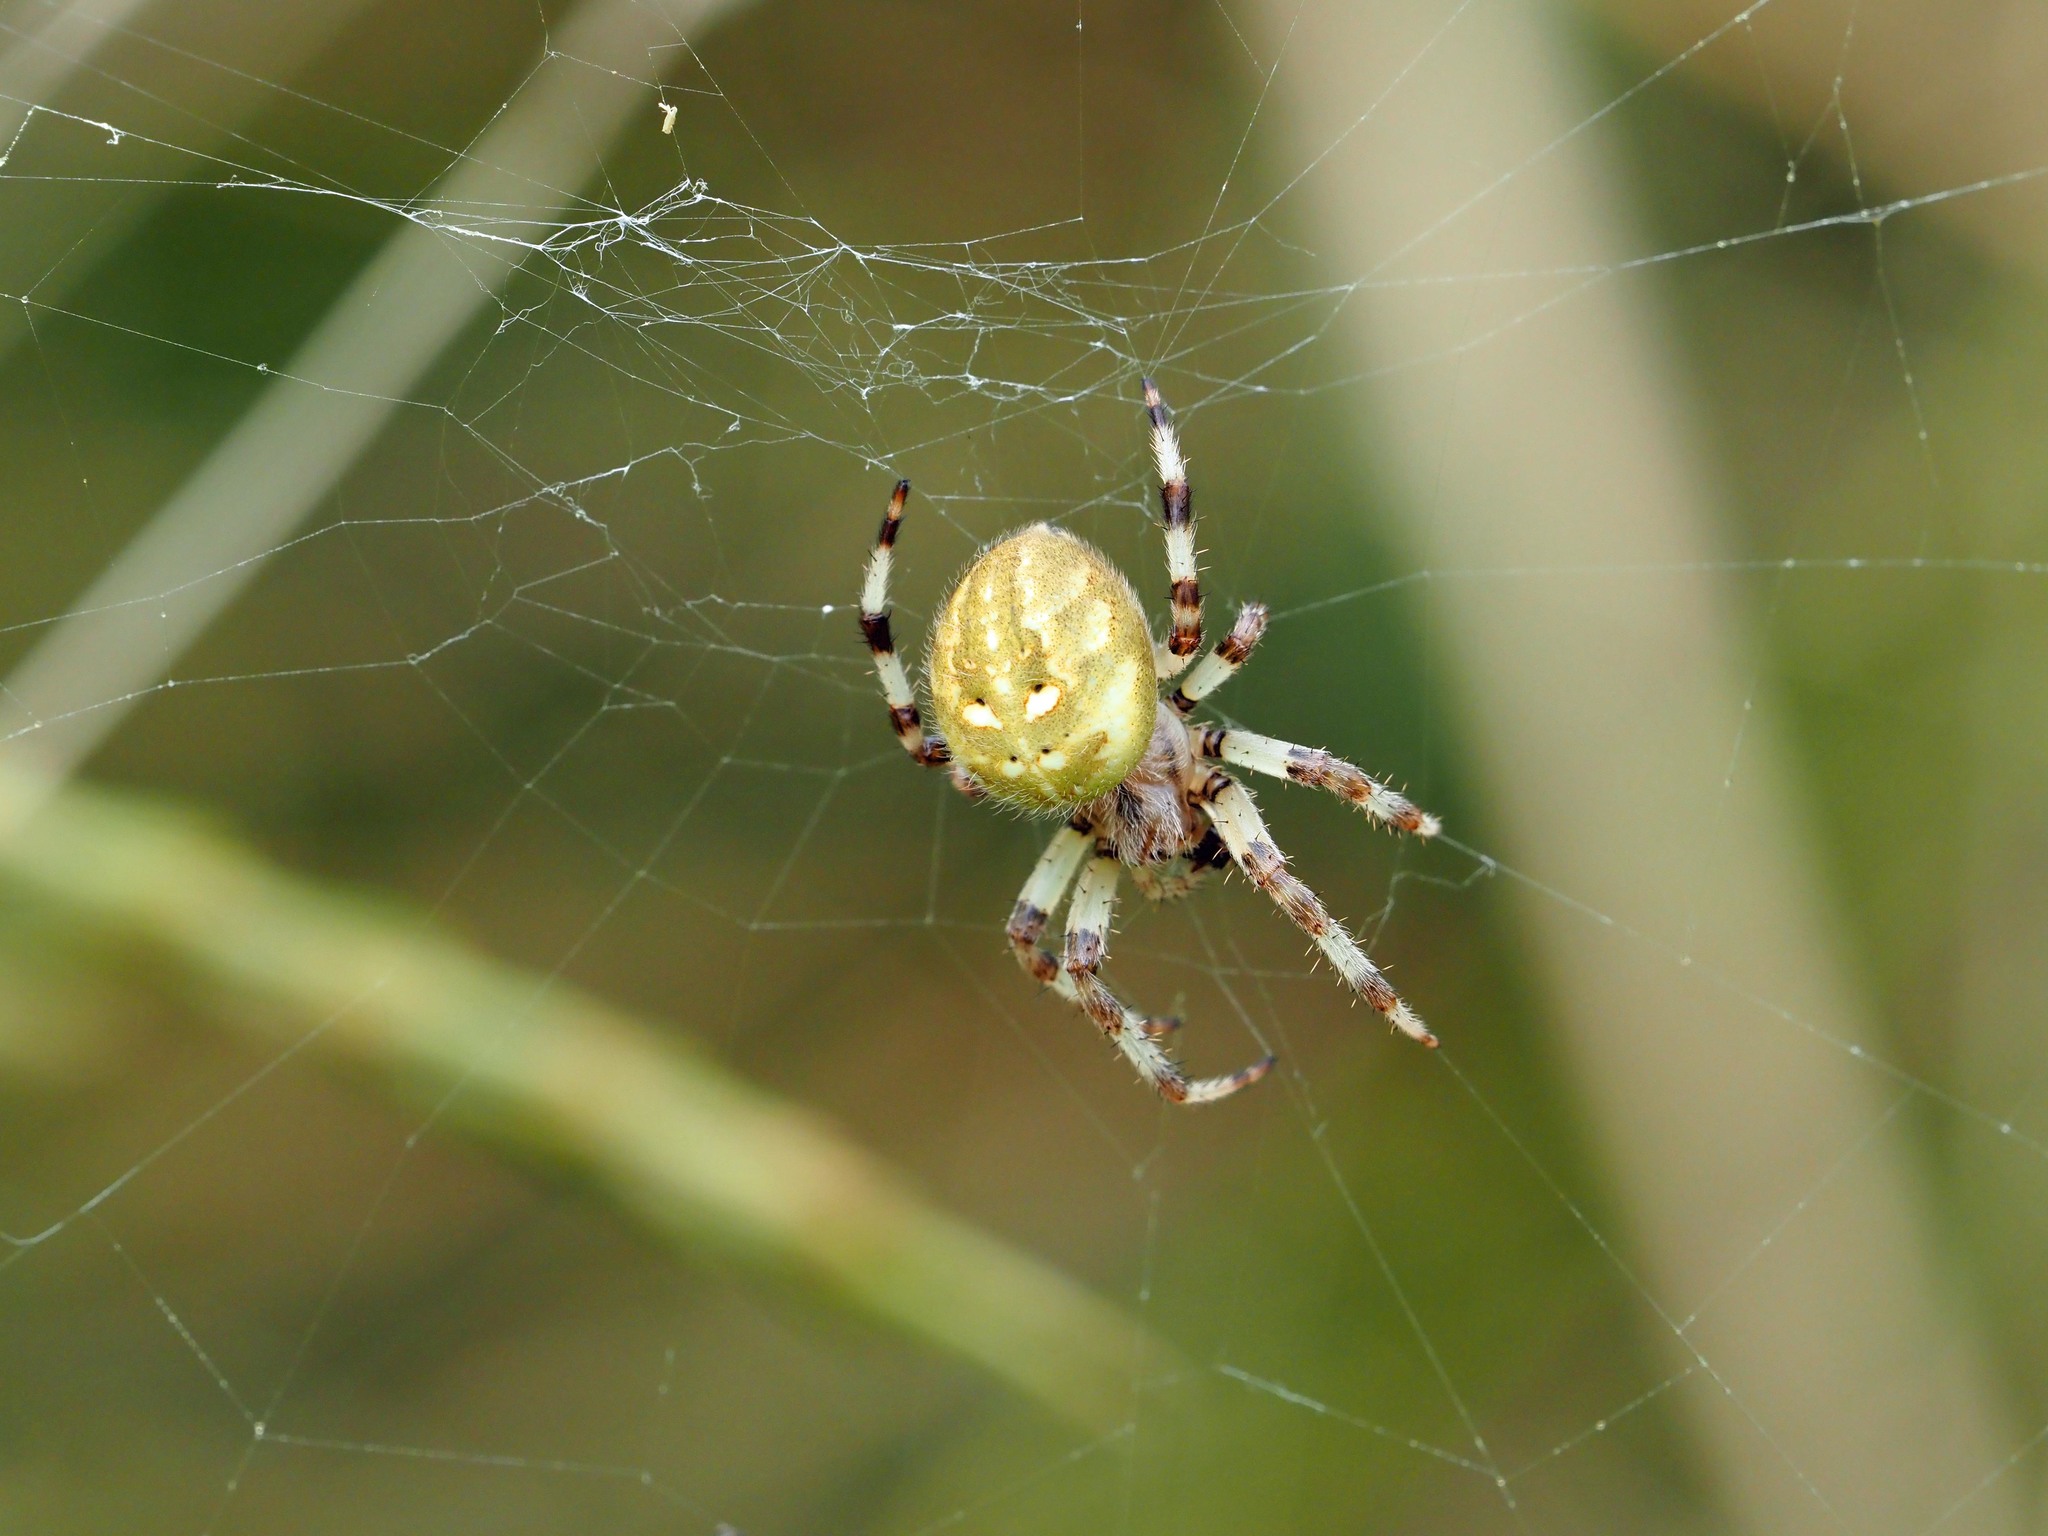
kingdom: Animalia
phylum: Arthropoda
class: Arachnida
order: Araneae
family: Araneidae
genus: Araneus
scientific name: Araneus quadratus
